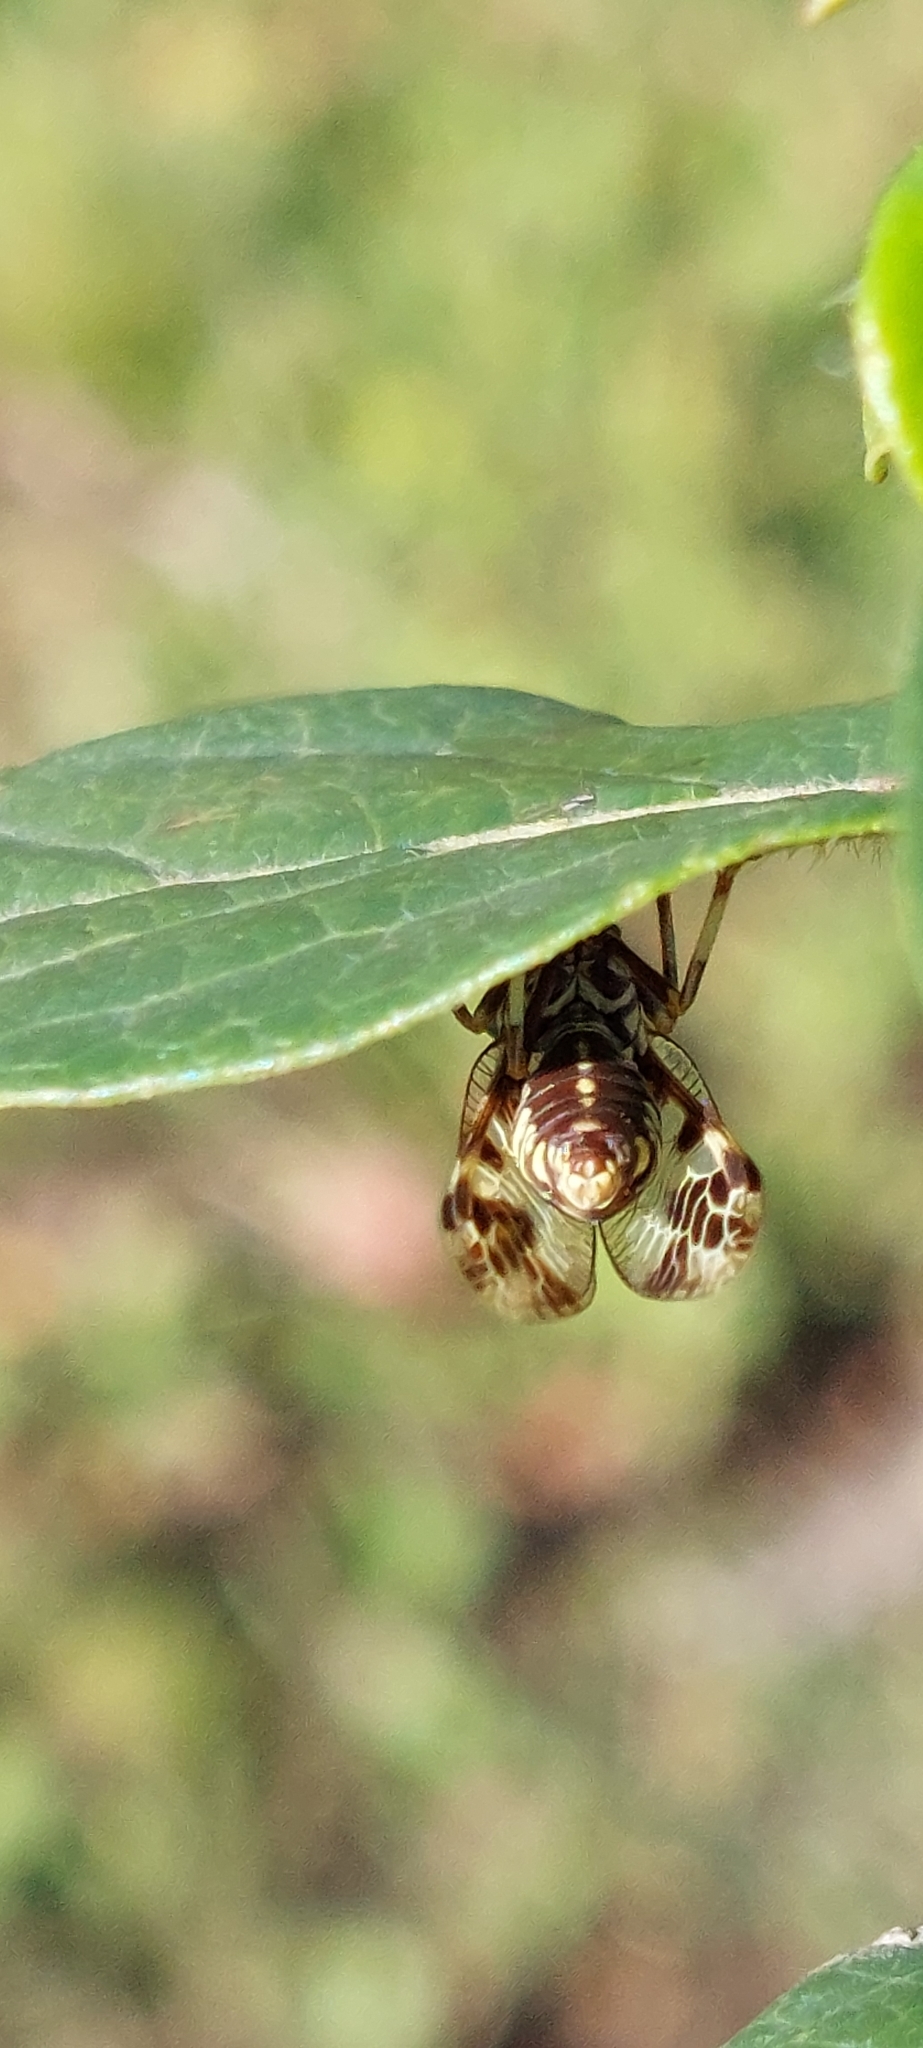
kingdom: Animalia
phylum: Arthropoda
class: Insecta
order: Neuroptera
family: Mantispidae
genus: Paramantispa
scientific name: Paramantispa ambusta
